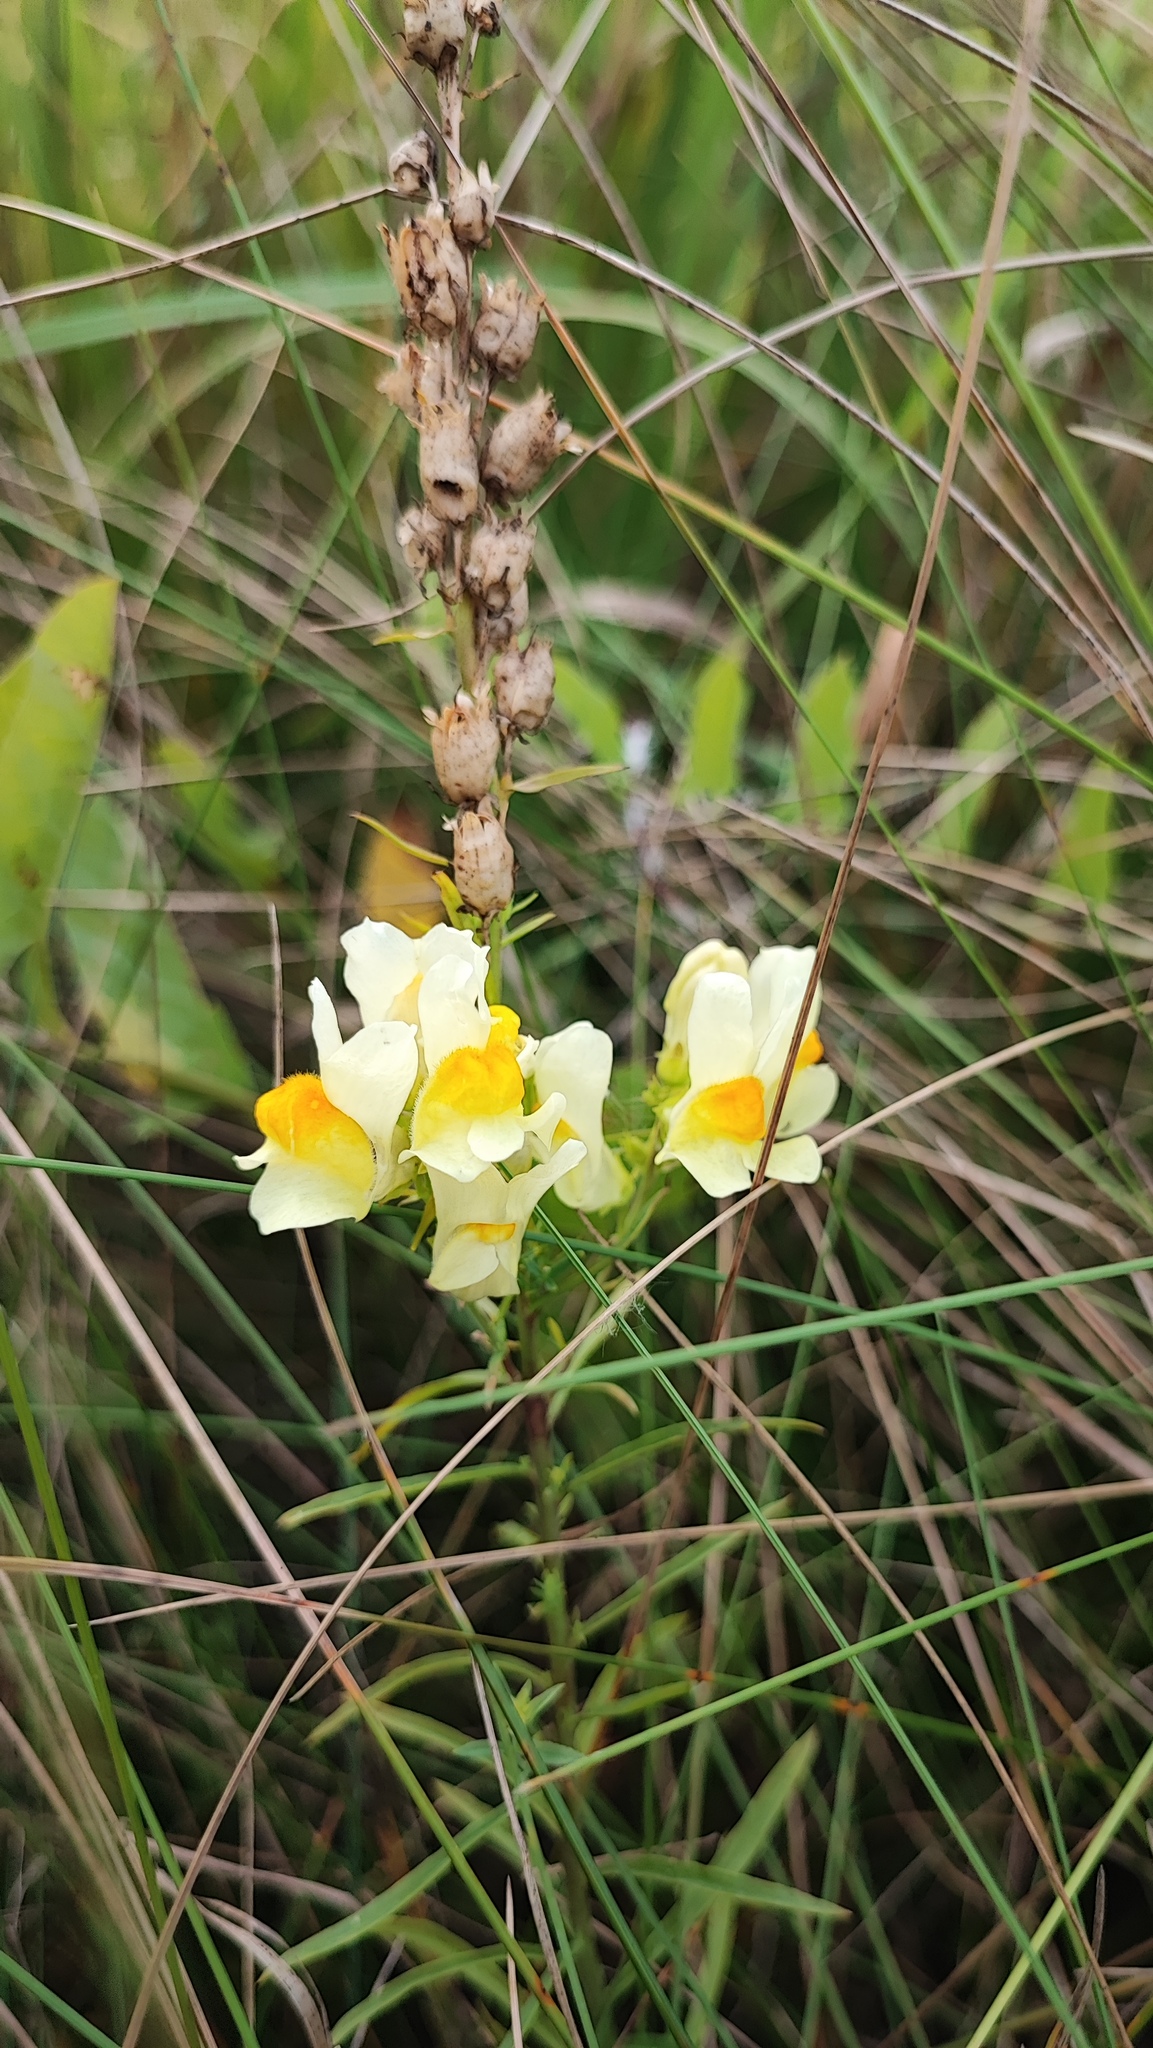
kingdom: Plantae
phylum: Tracheophyta
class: Magnoliopsida
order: Lamiales
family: Plantaginaceae
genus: Linaria
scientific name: Linaria vulgaris
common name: Butter and eggs
